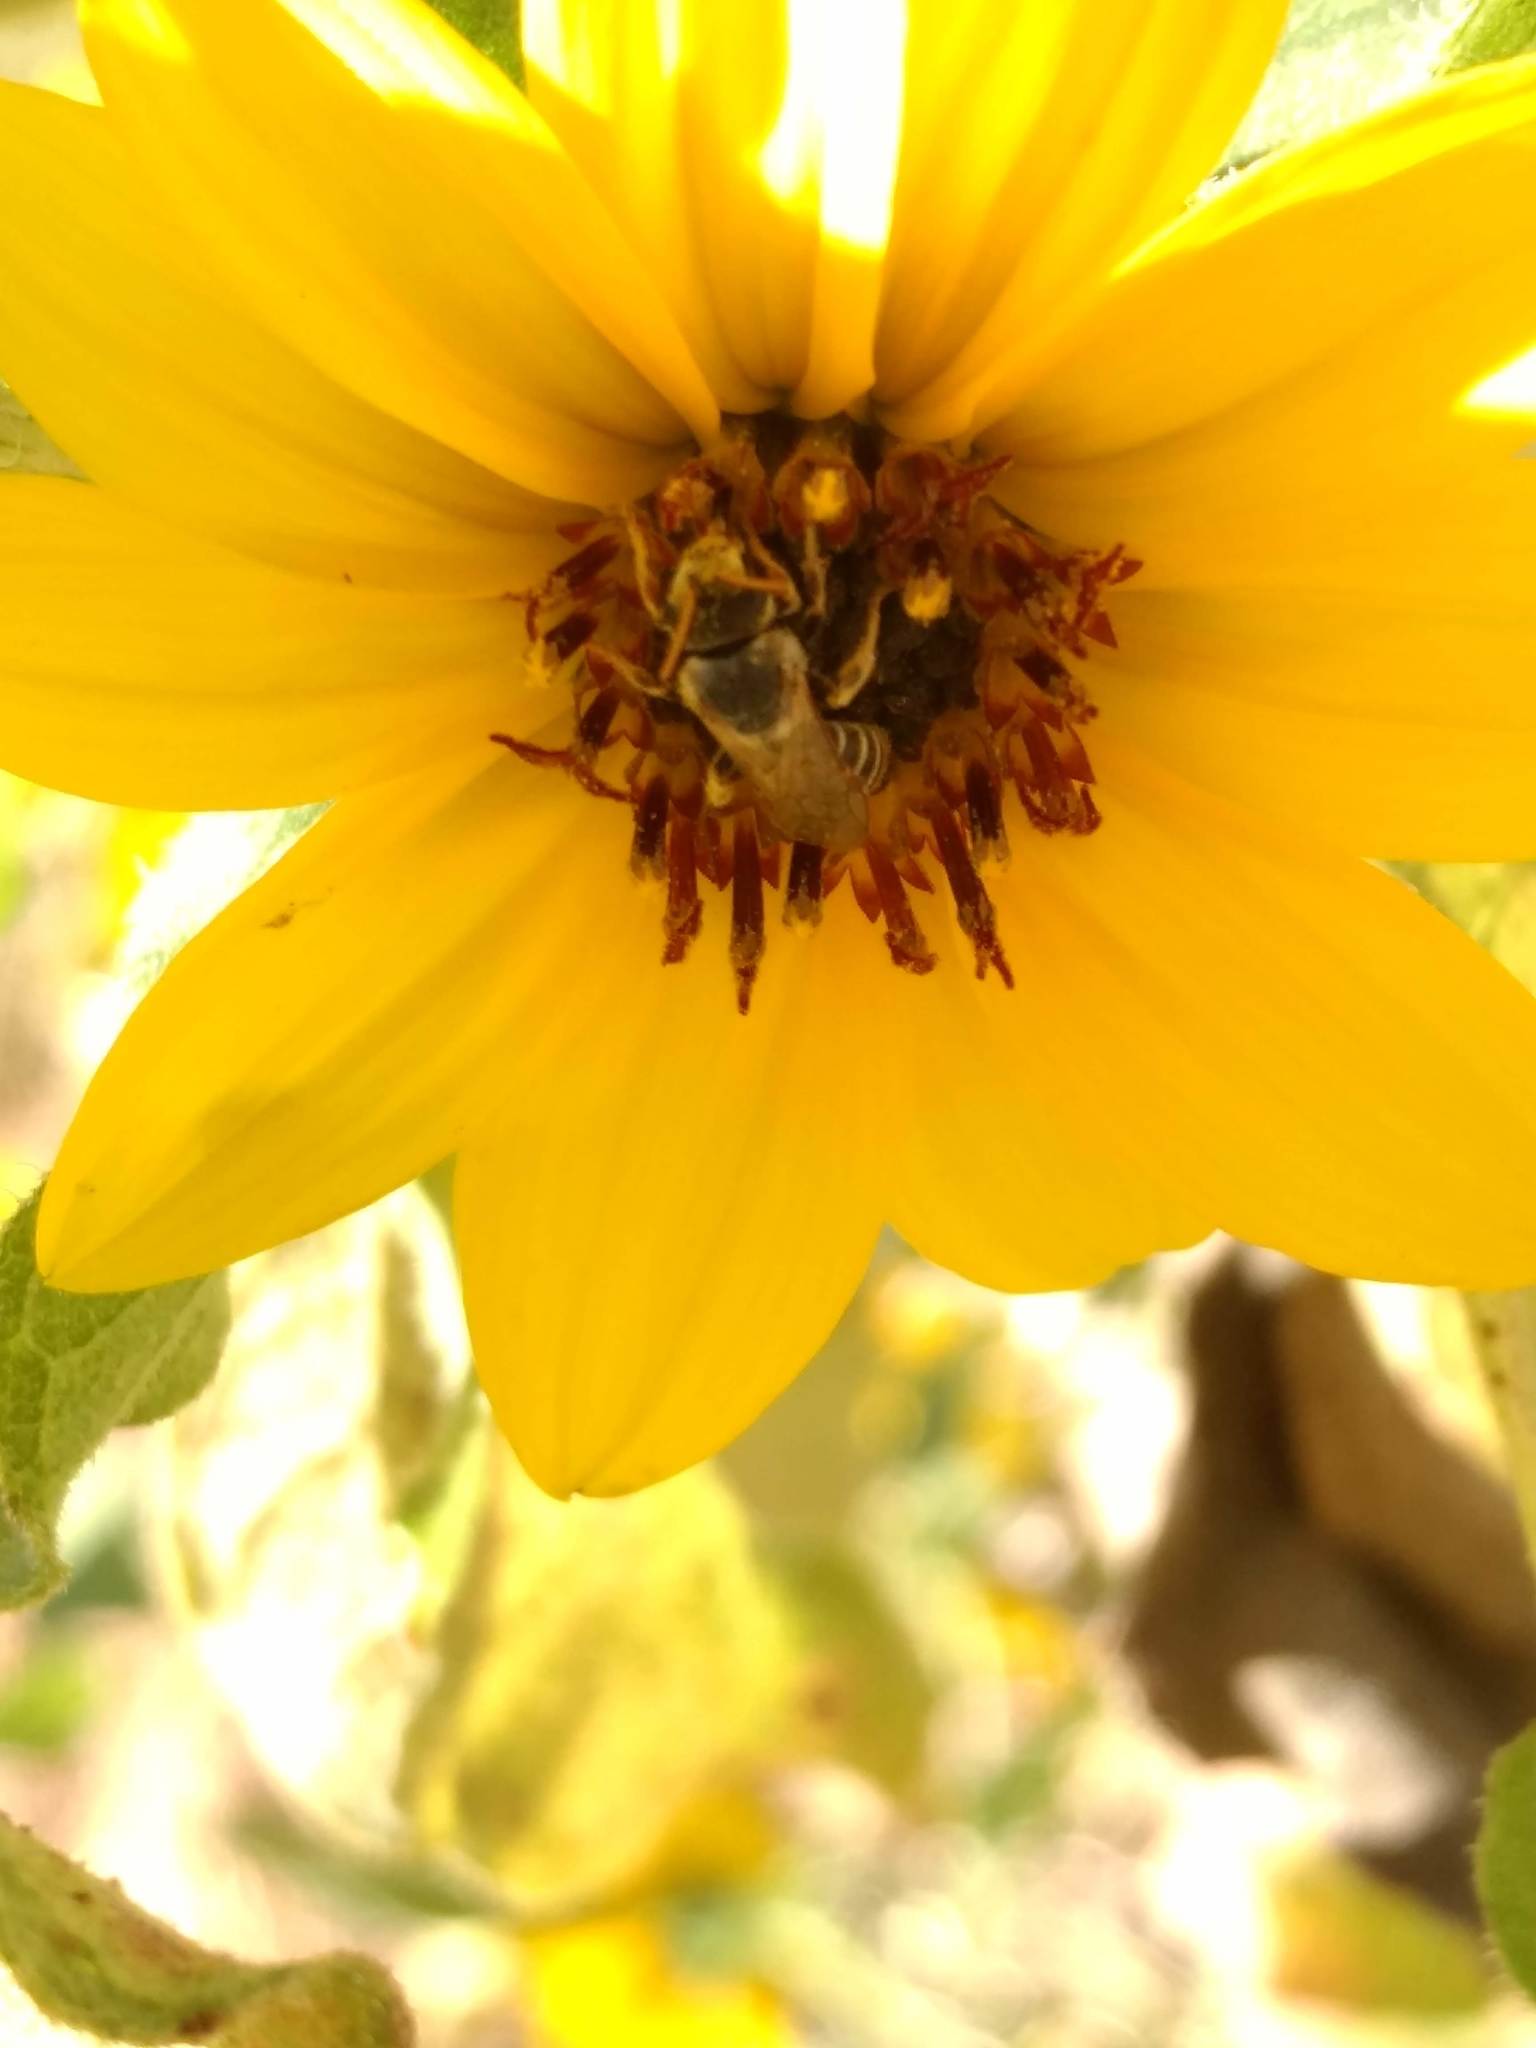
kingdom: Animalia
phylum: Arthropoda
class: Insecta
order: Hymenoptera
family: Halictidae
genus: Halictus
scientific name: Halictus ligatus
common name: Ligated furrow bee
